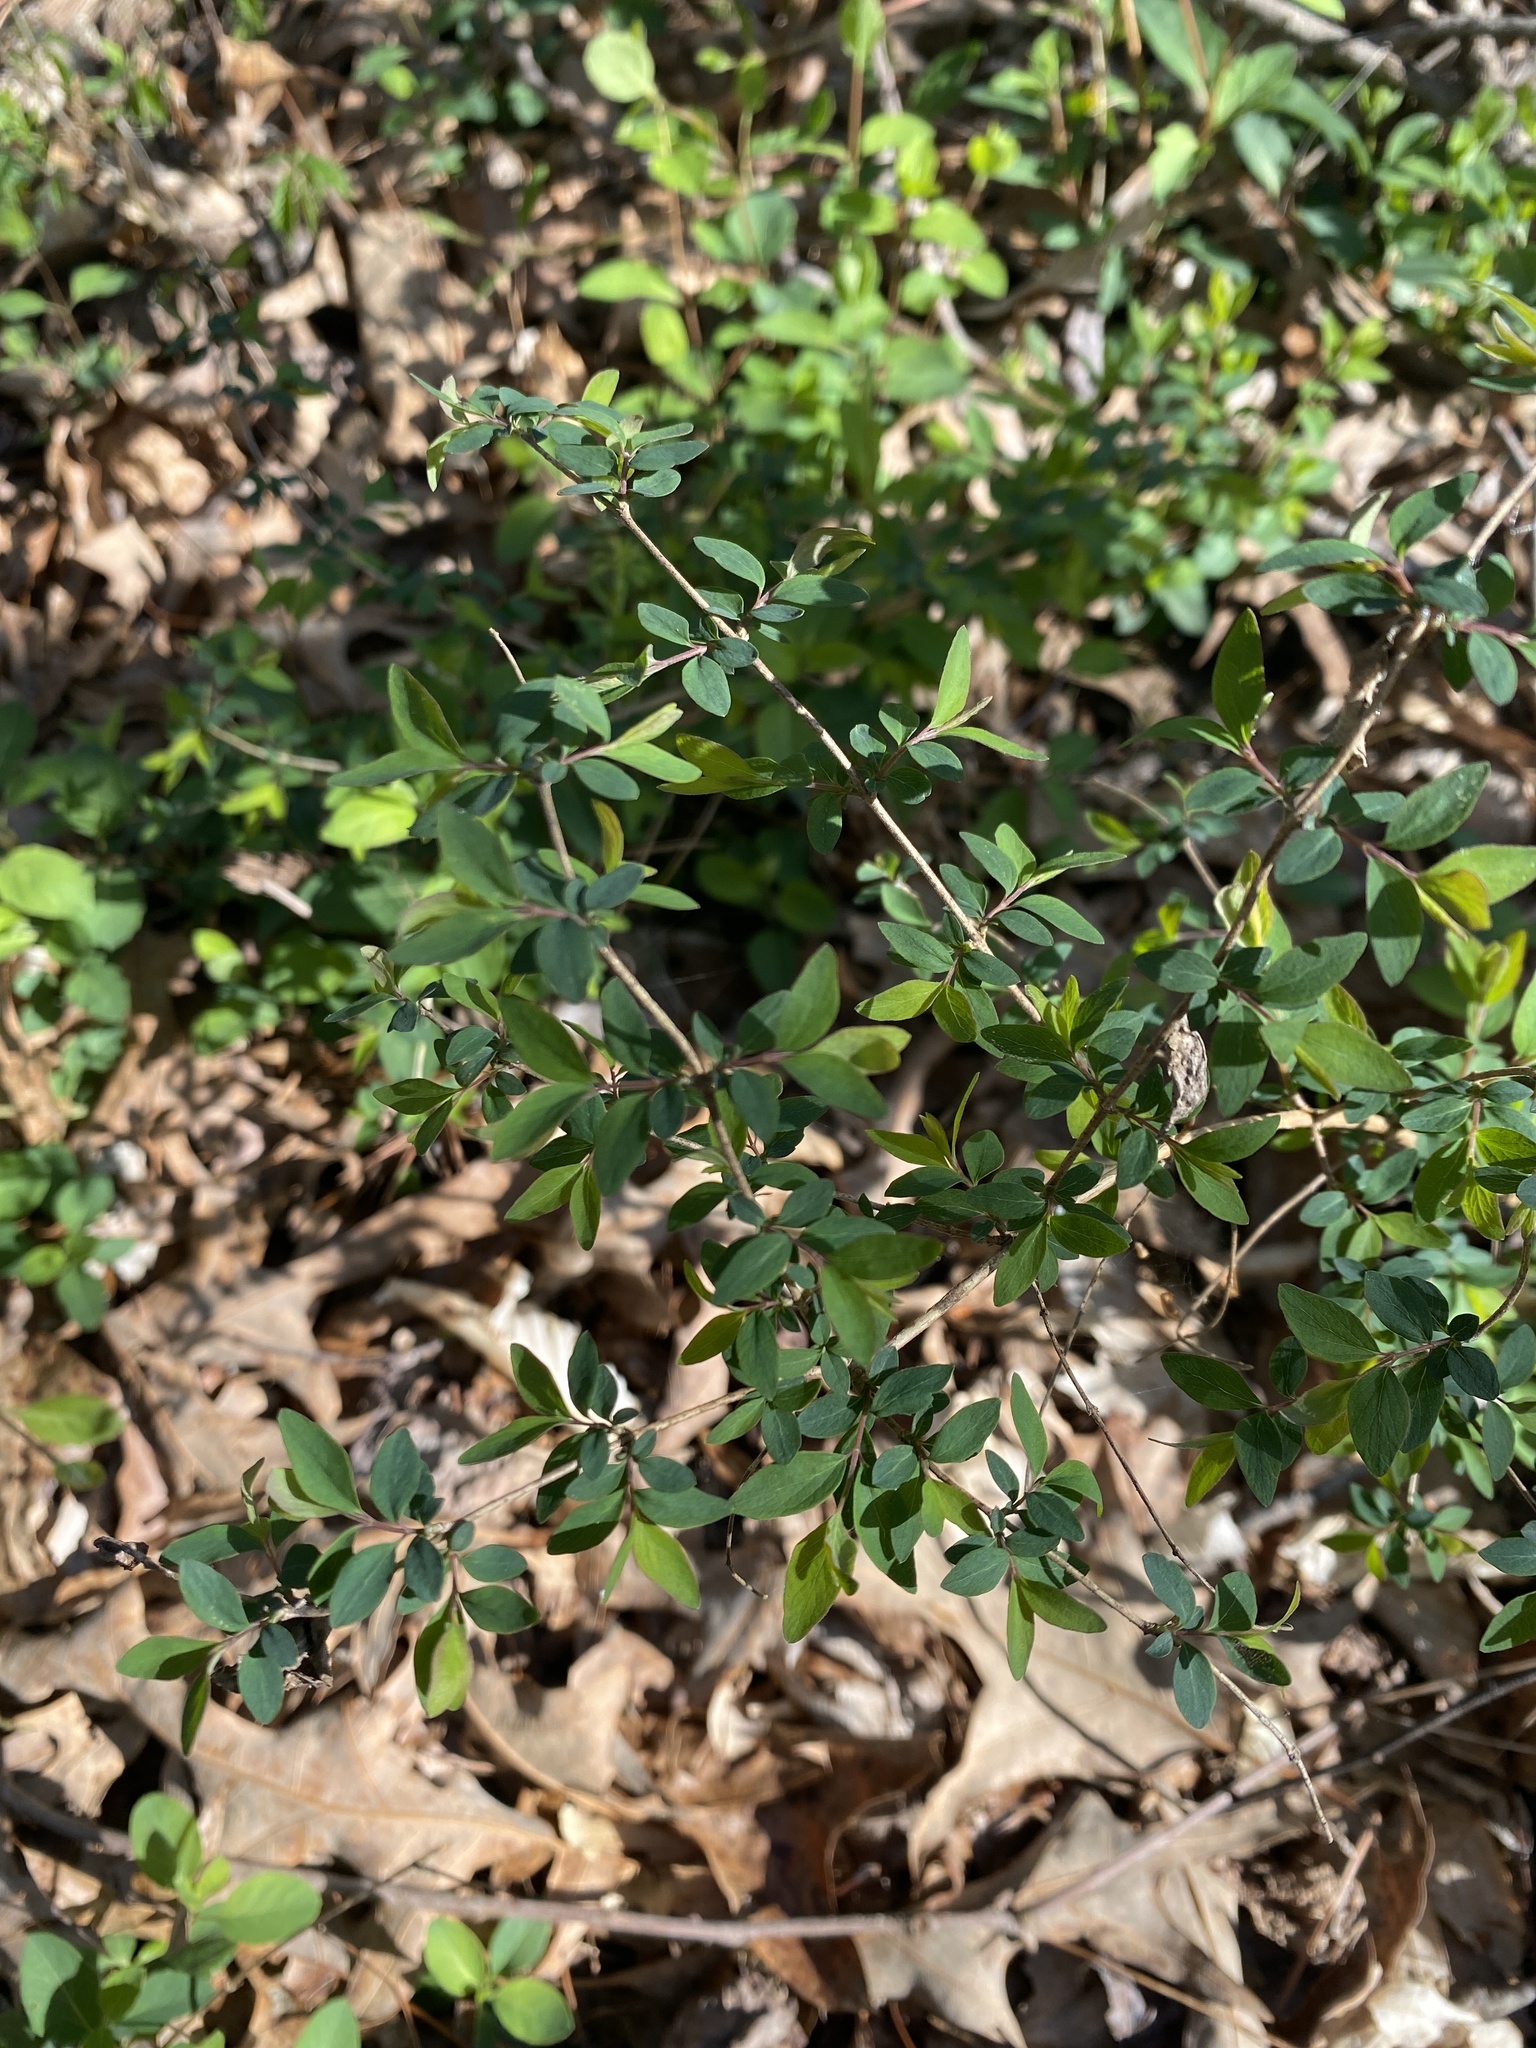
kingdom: Plantae
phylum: Tracheophyta
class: Magnoliopsida
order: Dipsacales
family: Caprifoliaceae
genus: Symphoricarpos
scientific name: Symphoricarpos orbiculatus
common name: Coralberry
